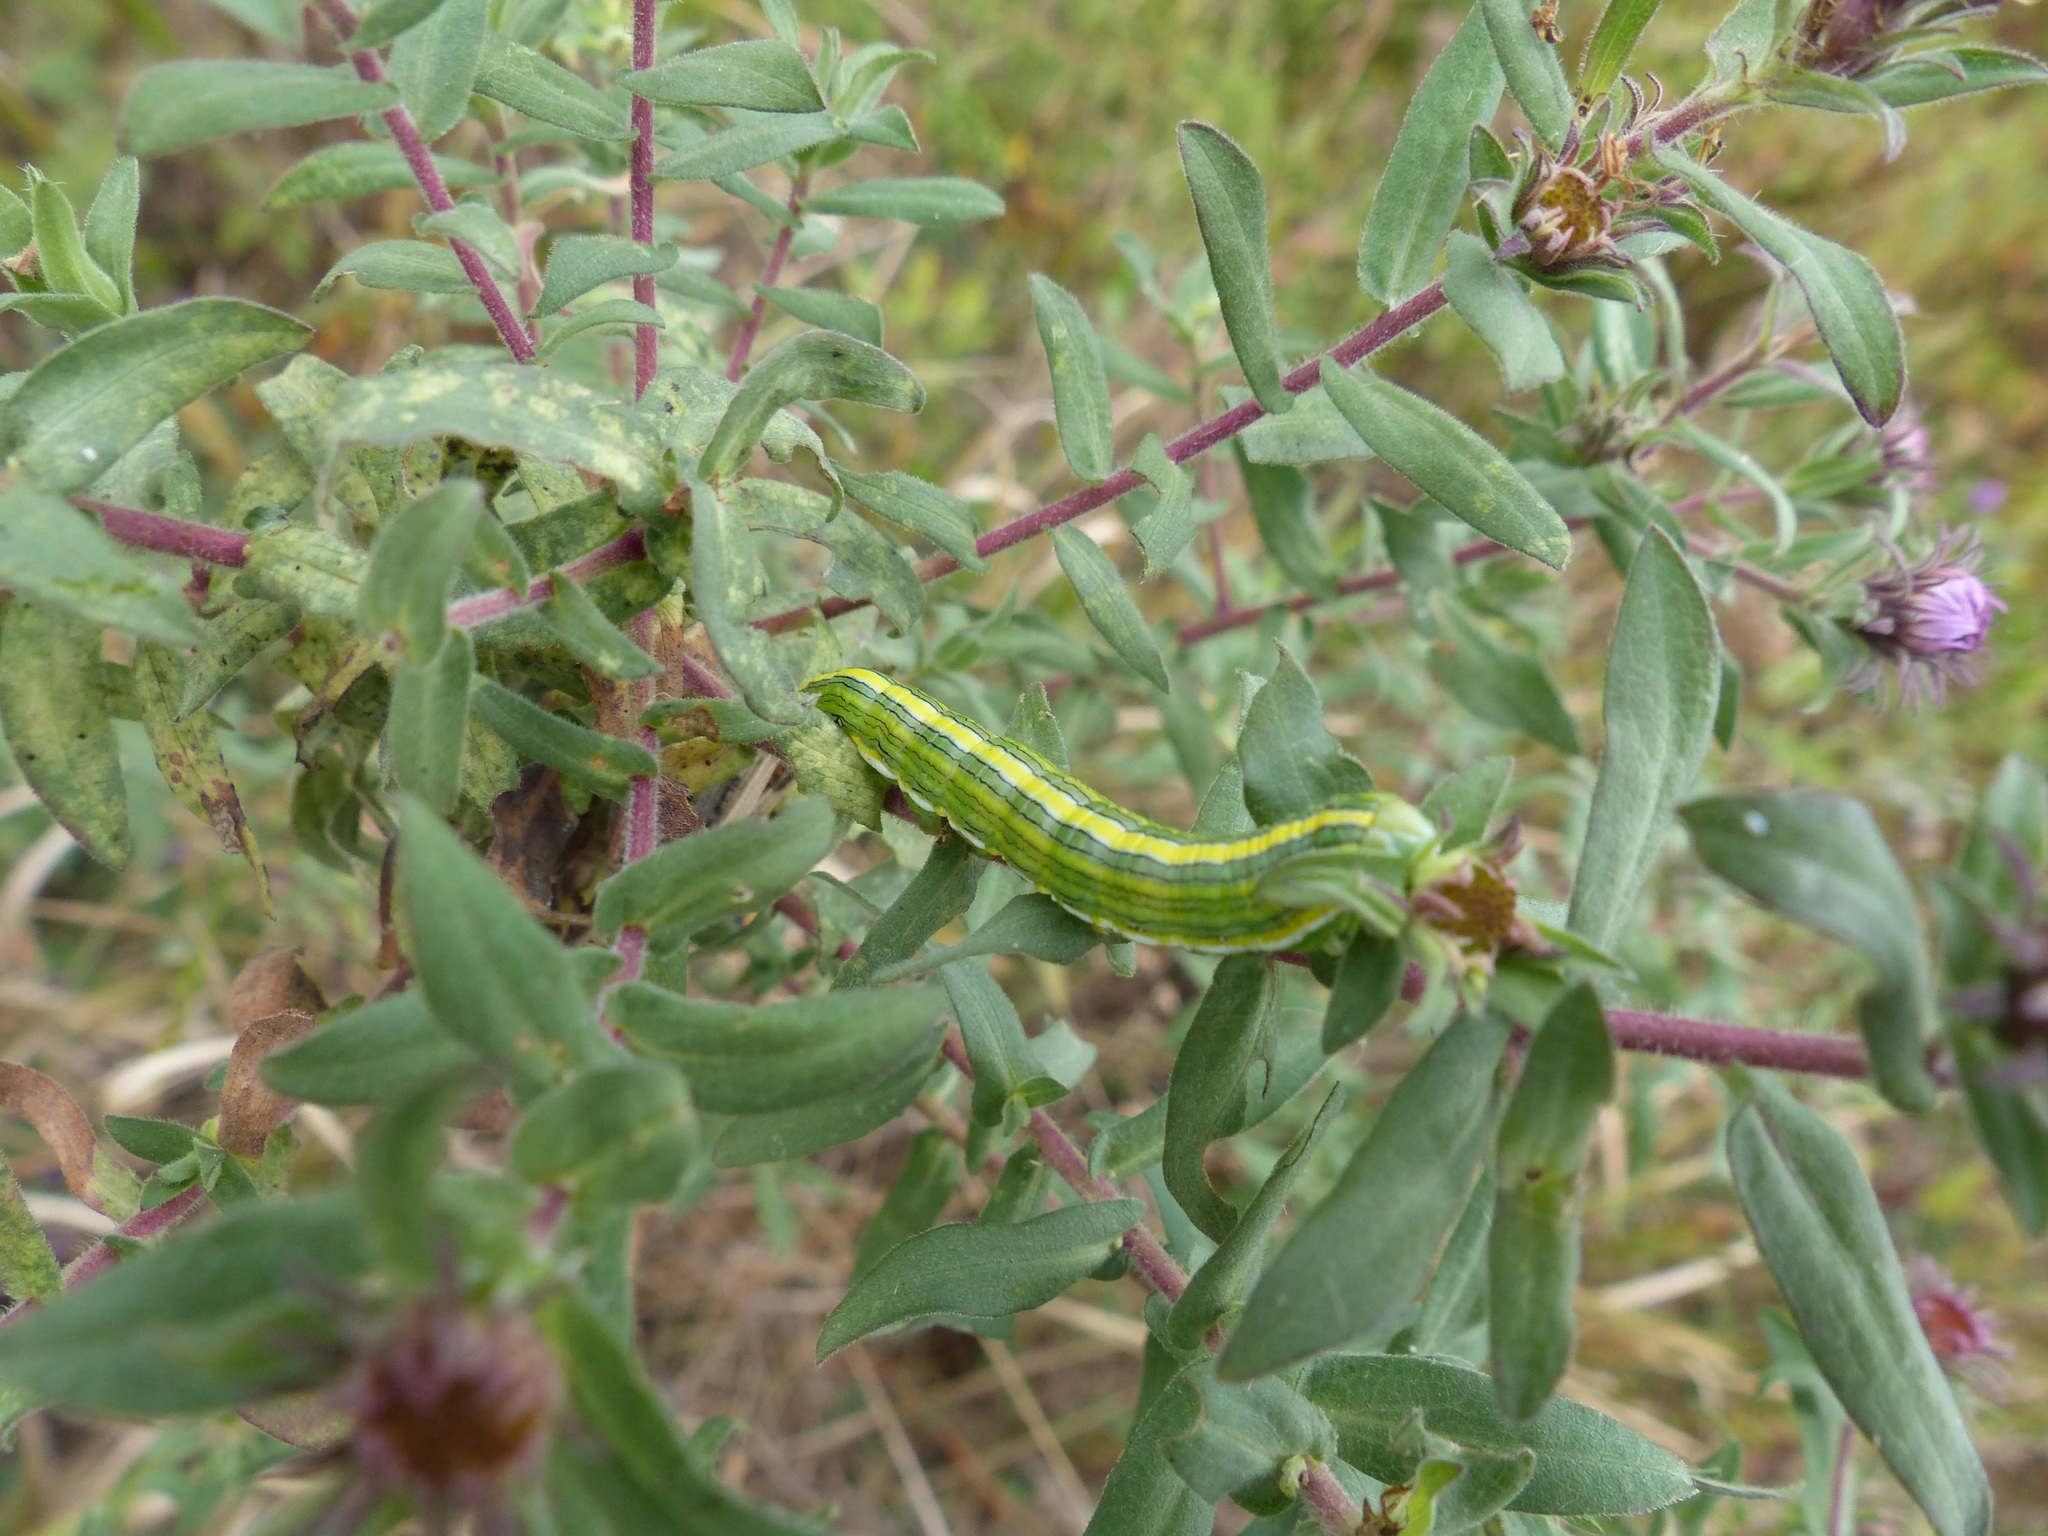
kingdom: Animalia
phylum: Arthropoda
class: Insecta
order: Lepidoptera
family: Noctuidae
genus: Cucullia
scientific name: Cucullia asteroides
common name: Asteroid moth
